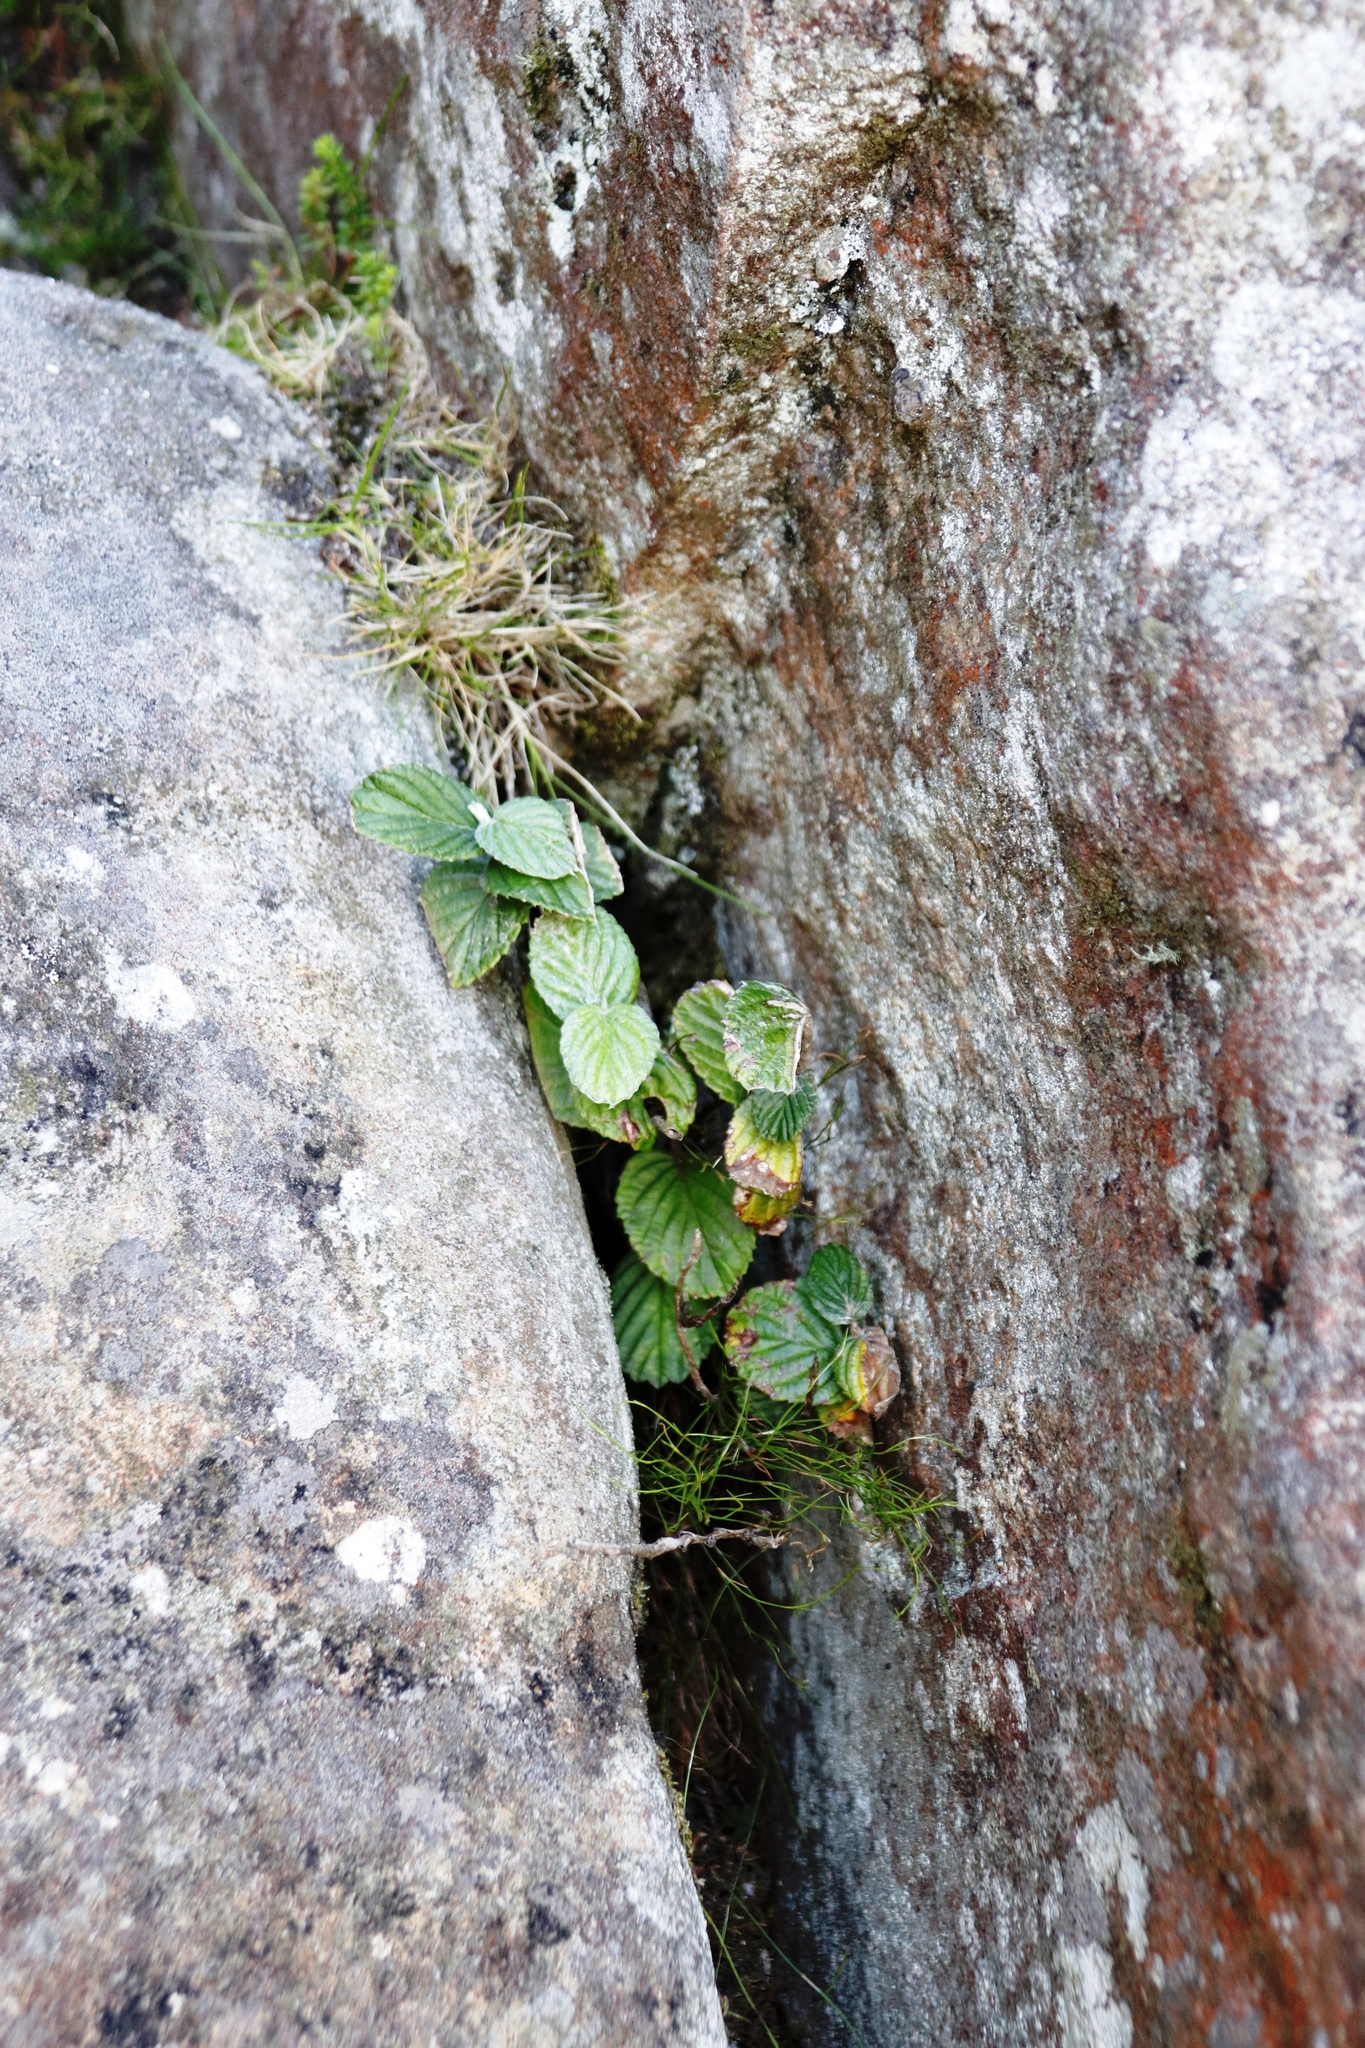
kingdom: Plantae
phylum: Tracheophyta
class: Magnoliopsida
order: Rosales
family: Rosaceae
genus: Cliffortia
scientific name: Cliffortia odorata
